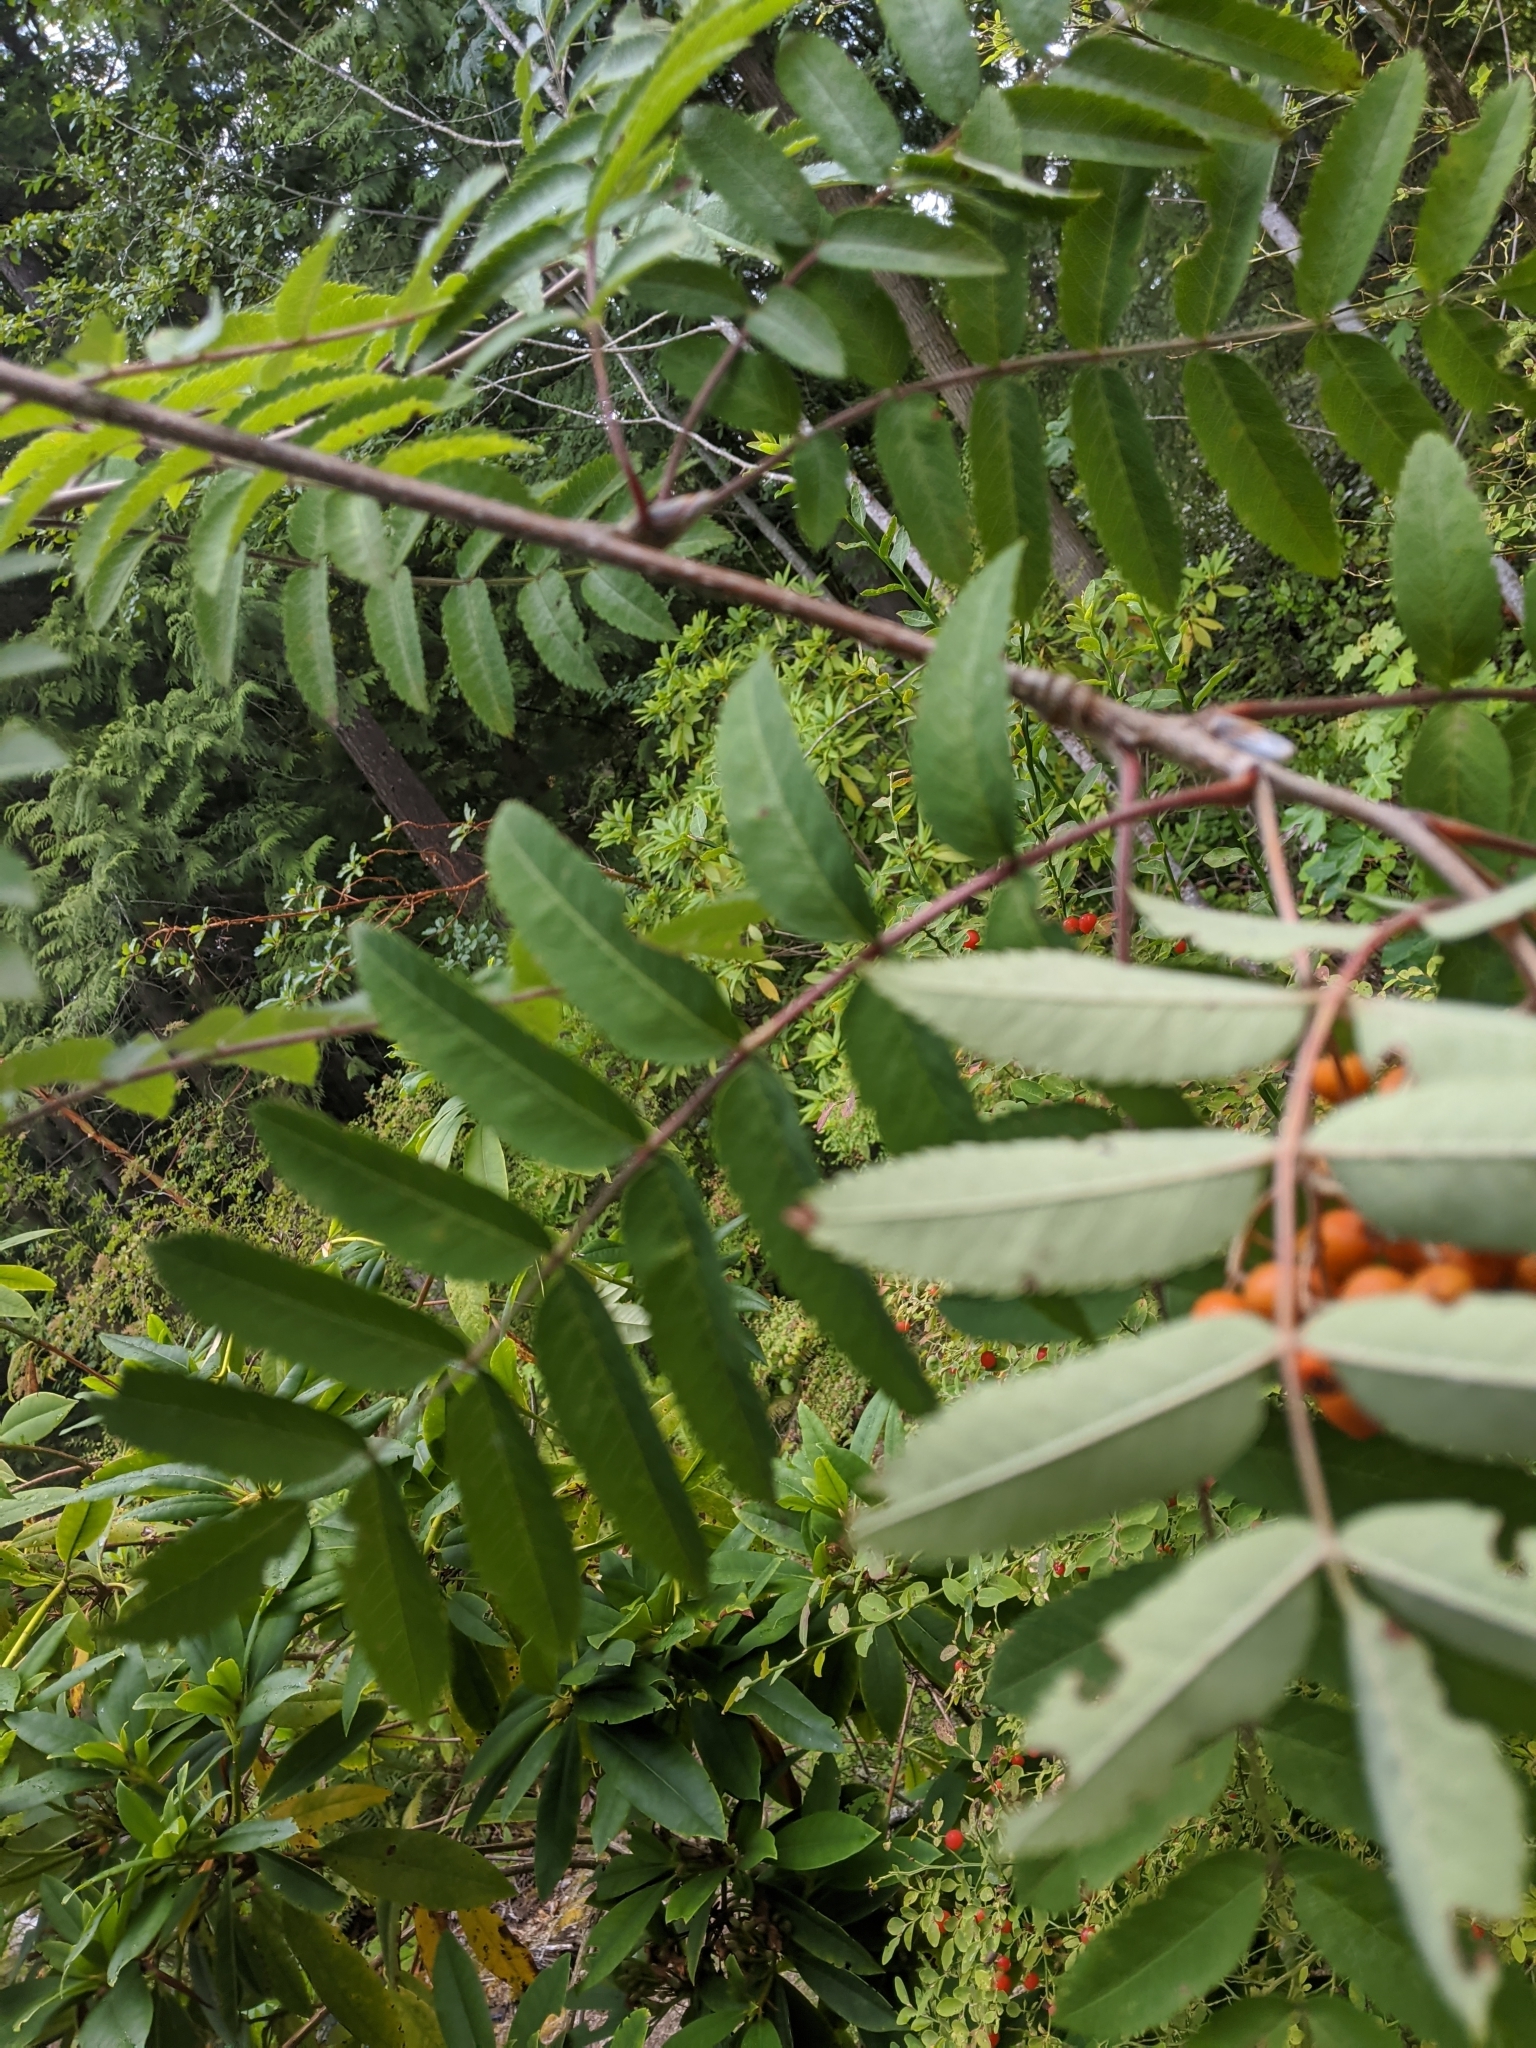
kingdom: Plantae
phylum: Tracheophyta
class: Magnoliopsida
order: Rosales
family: Rosaceae
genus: Sorbus
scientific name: Sorbus aucuparia
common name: Rowan
